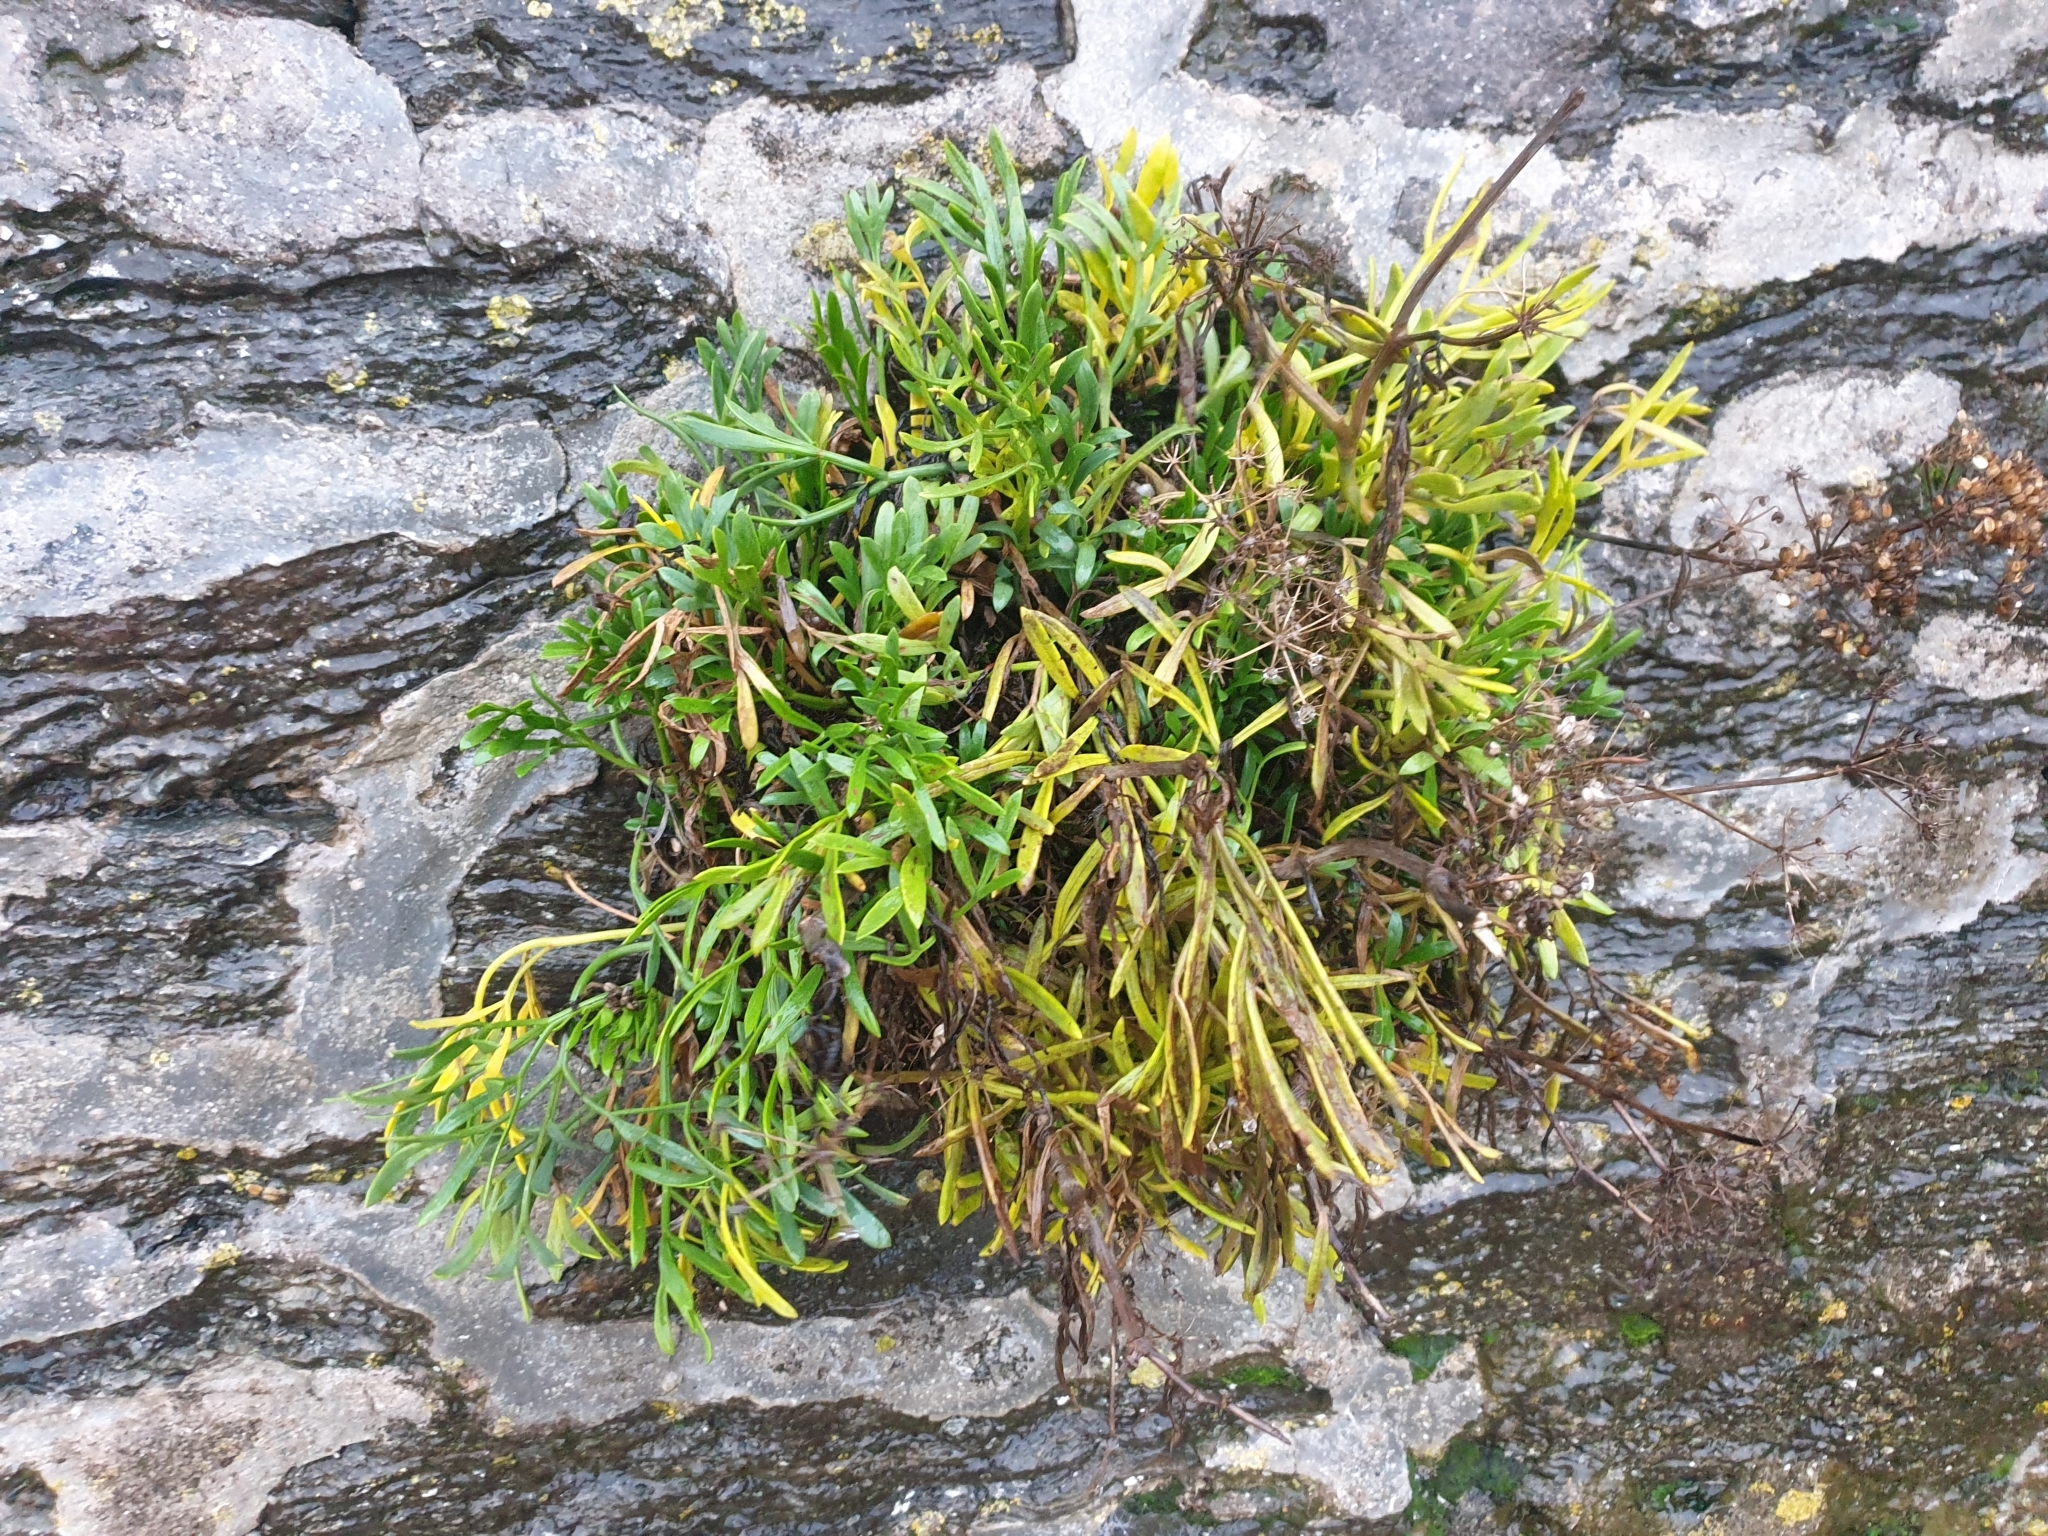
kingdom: Plantae
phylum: Tracheophyta
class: Magnoliopsida
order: Apiales
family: Apiaceae
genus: Crithmum
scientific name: Crithmum maritimum
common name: Rock samphire
